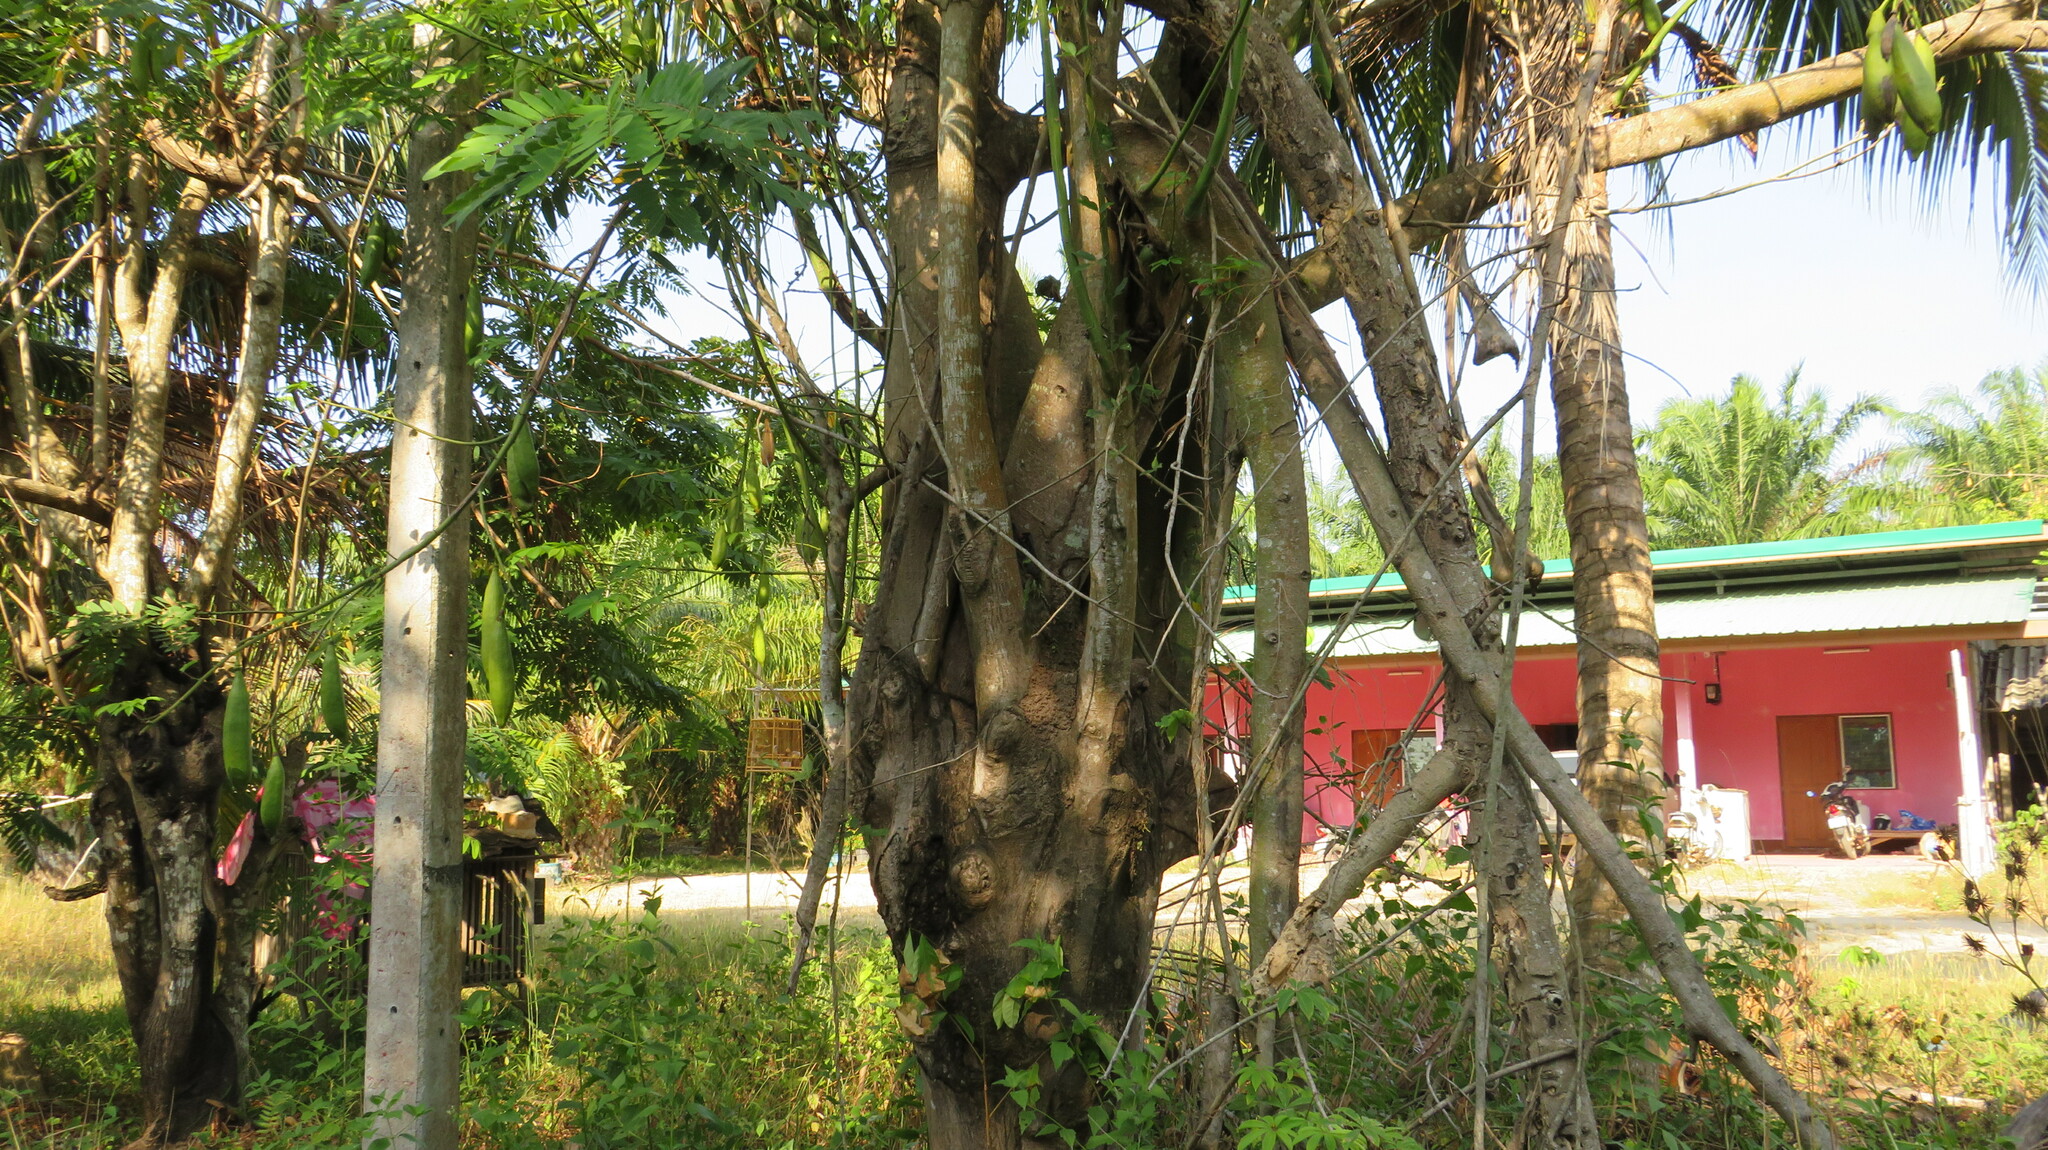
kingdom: Plantae
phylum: Tracheophyta
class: Magnoliopsida
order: Malvales
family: Malvaceae
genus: Ceiba
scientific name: Ceiba pentandra
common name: Kapok
